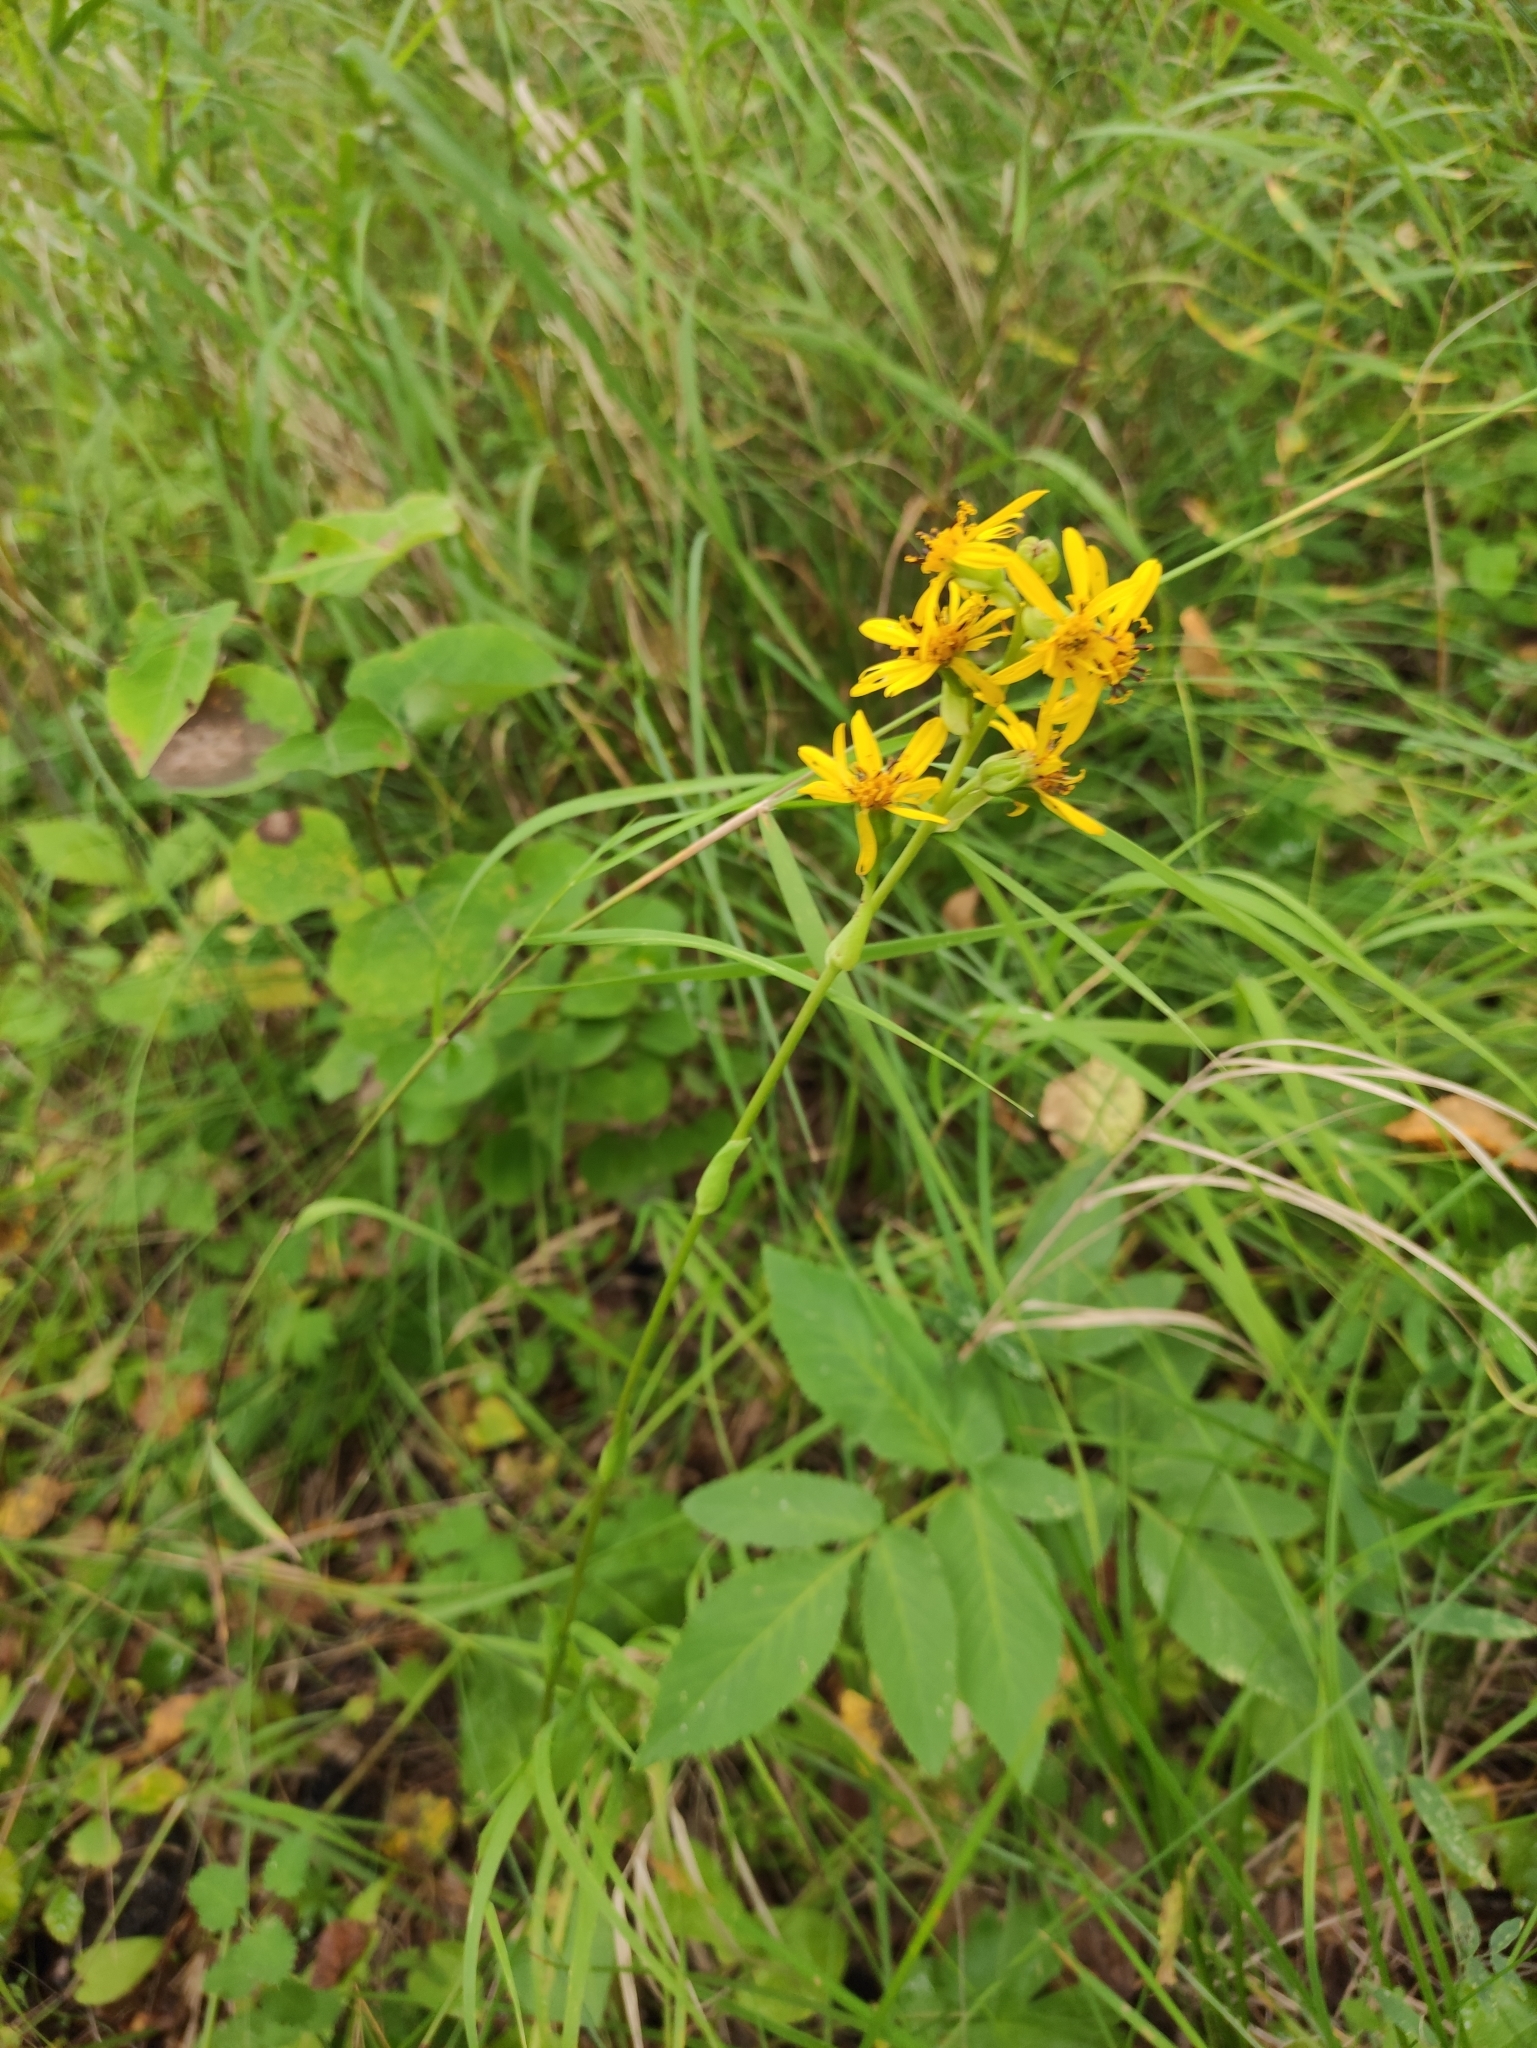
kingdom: Plantae
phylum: Tracheophyta
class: Magnoliopsida
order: Asterales
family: Asteraceae
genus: Ligularia
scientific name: Ligularia sibirica
